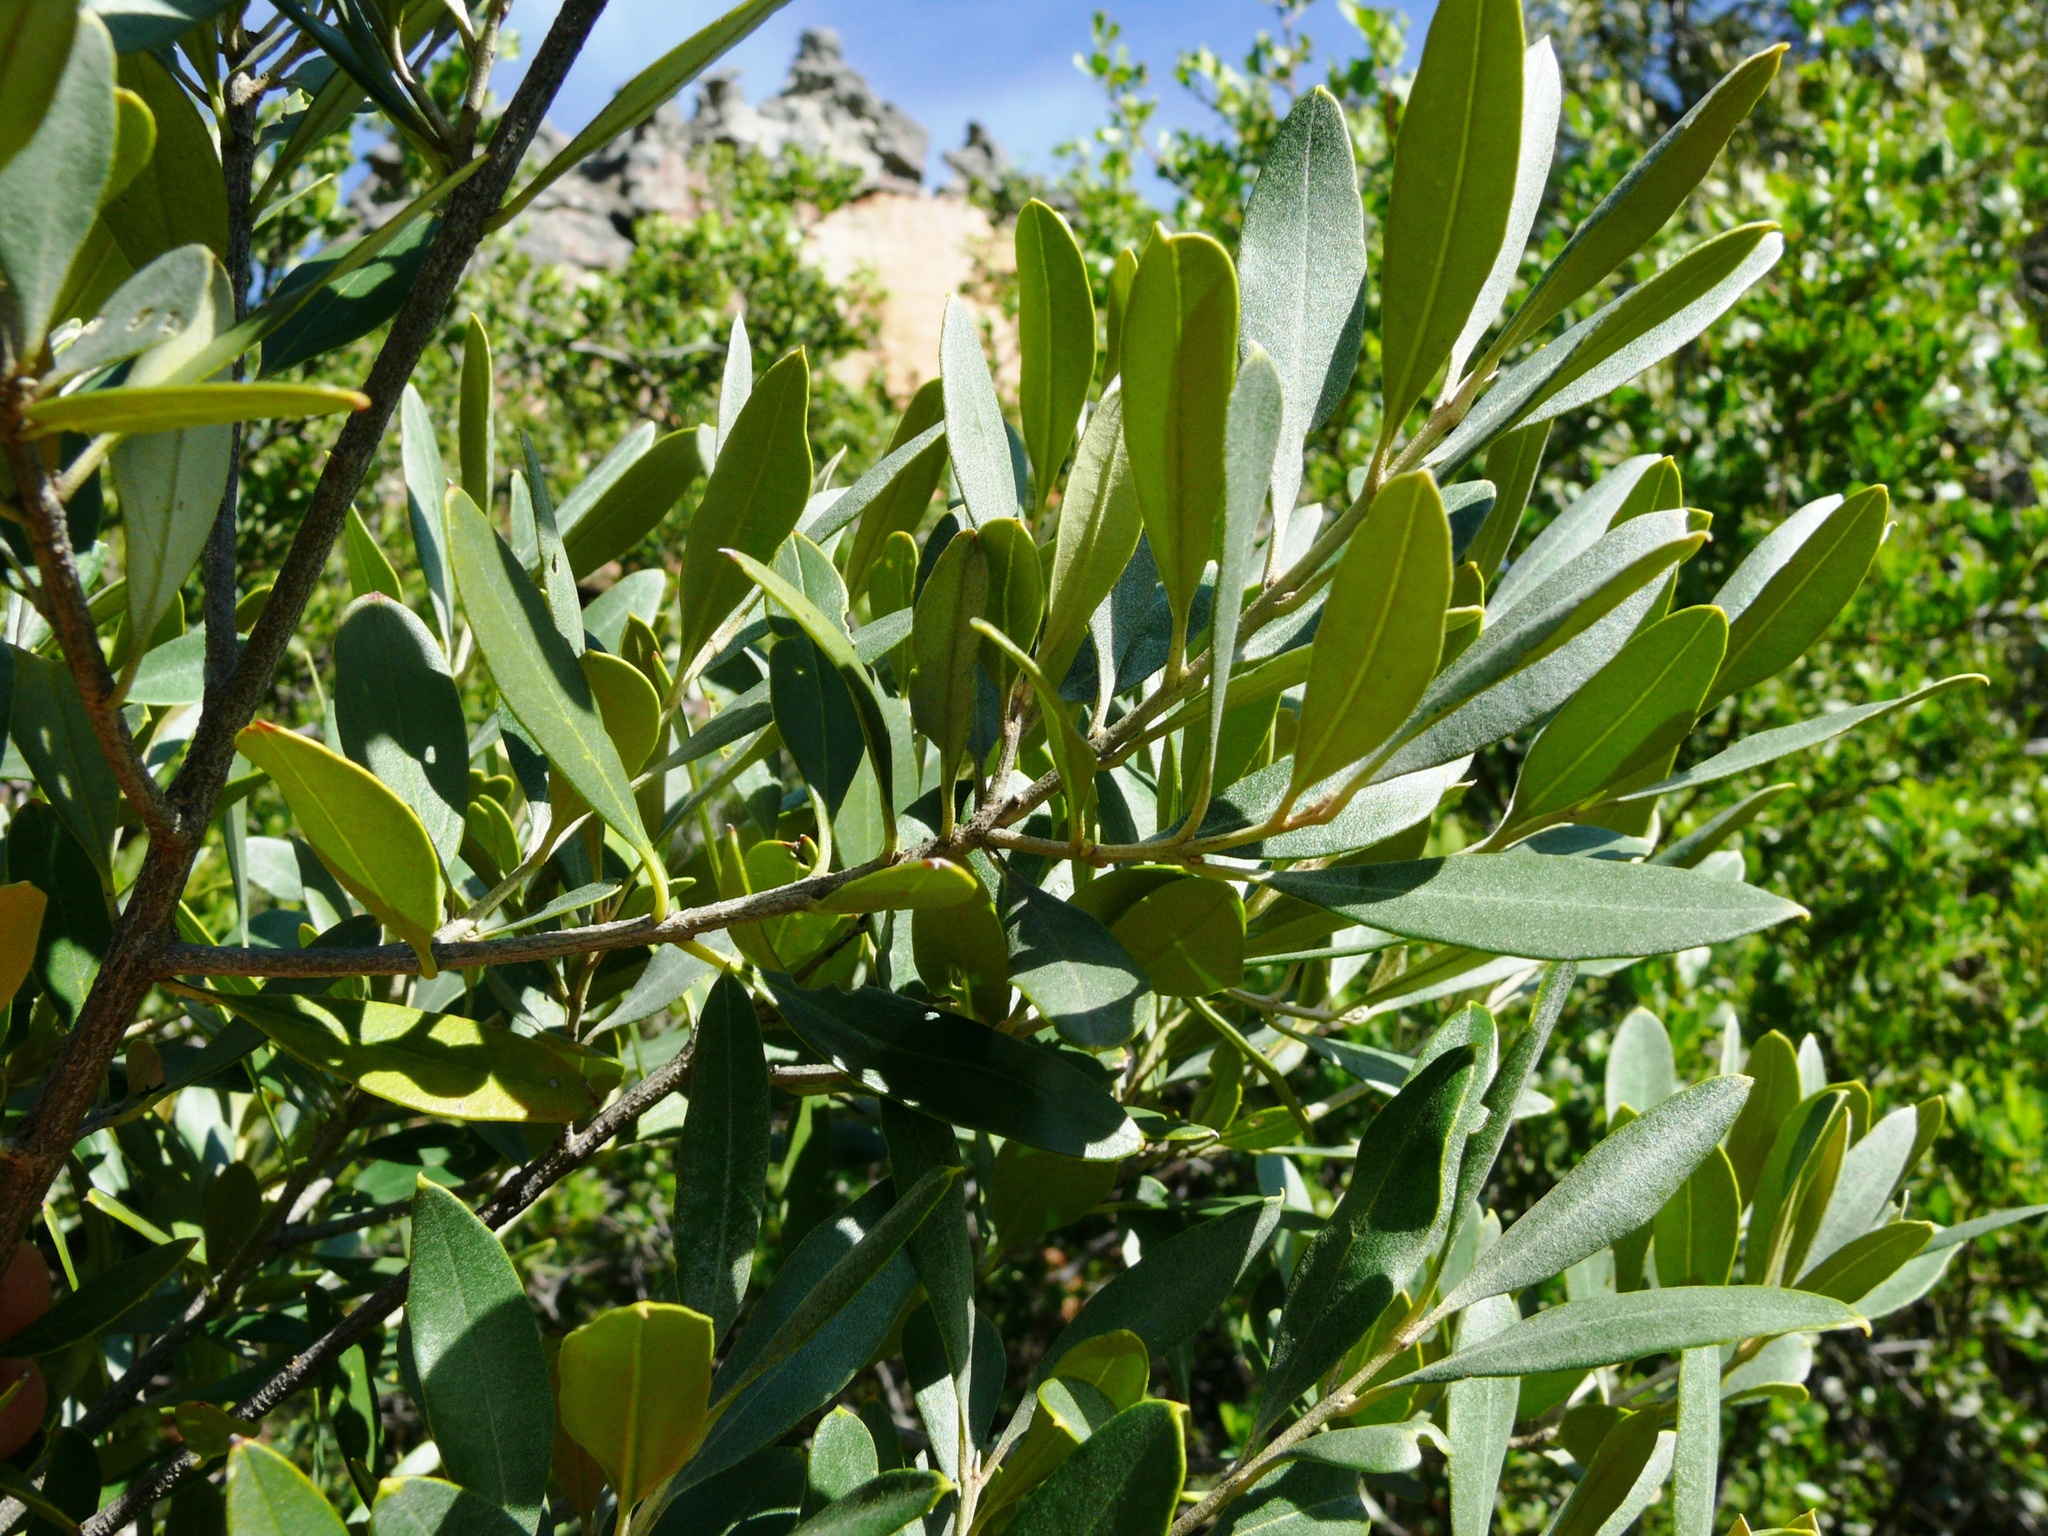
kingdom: Plantae
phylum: Tracheophyta
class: Magnoliopsida
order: Lamiales
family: Oleaceae
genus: Olea
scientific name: Olea europaea
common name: Olive
